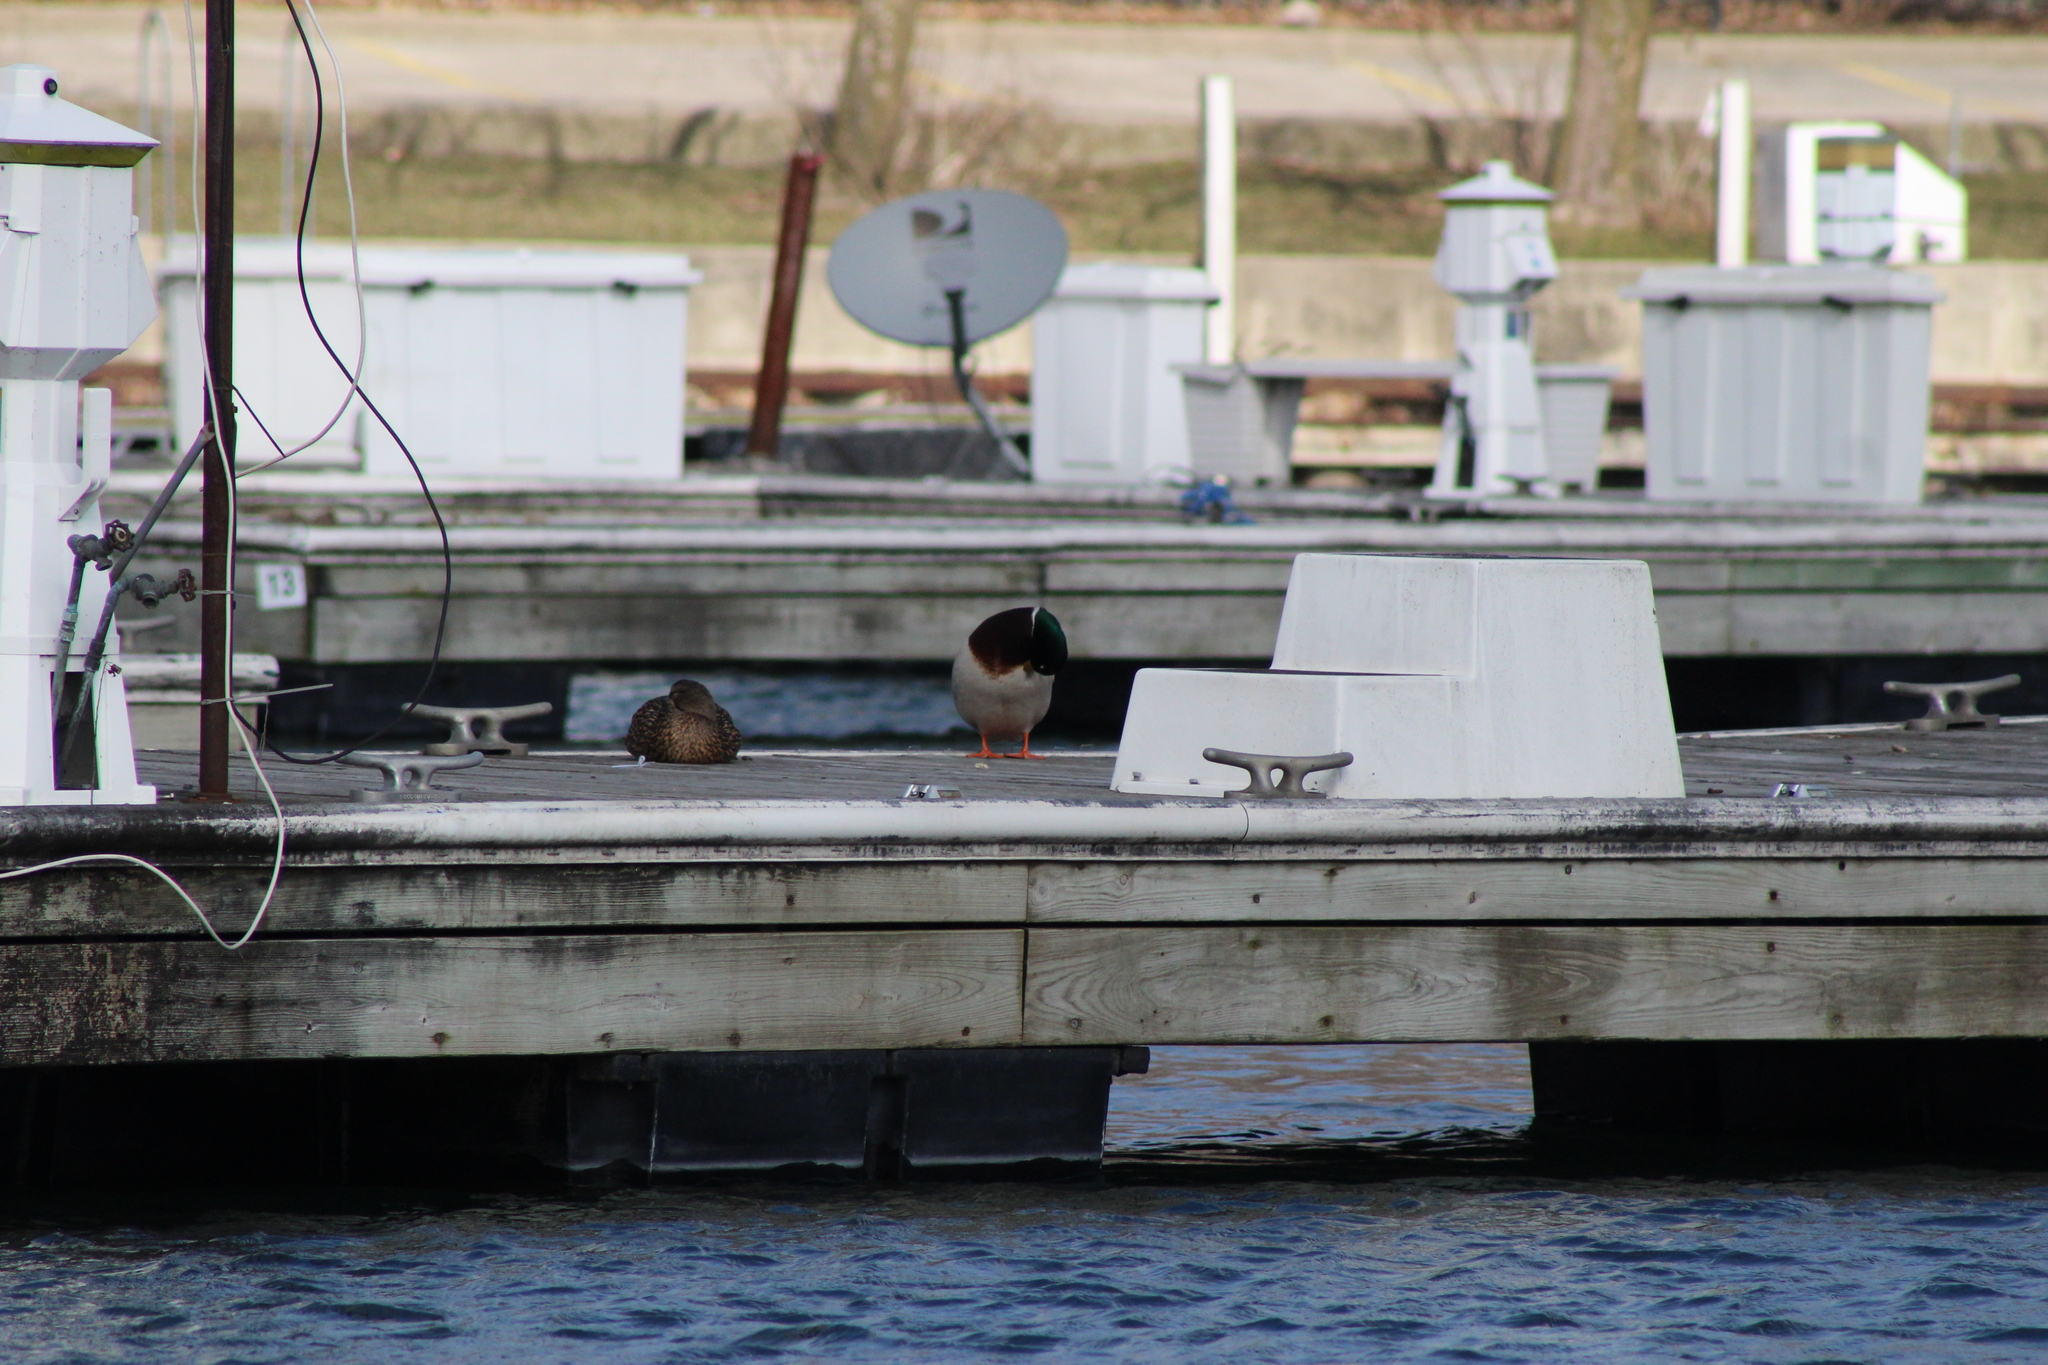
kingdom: Animalia
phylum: Chordata
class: Aves
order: Anseriformes
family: Anatidae
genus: Anas
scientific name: Anas platyrhynchos
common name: Mallard
